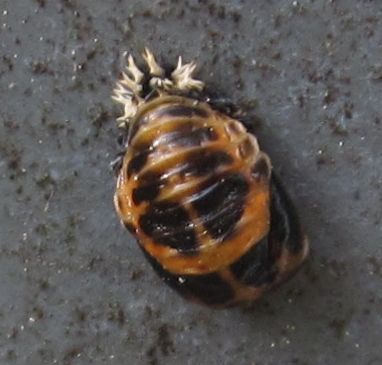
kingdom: Animalia
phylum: Arthropoda
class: Insecta
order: Coleoptera
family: Coccinellidae
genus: Harmonia
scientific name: Harmonia axyridis
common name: Harlequin ladybird
